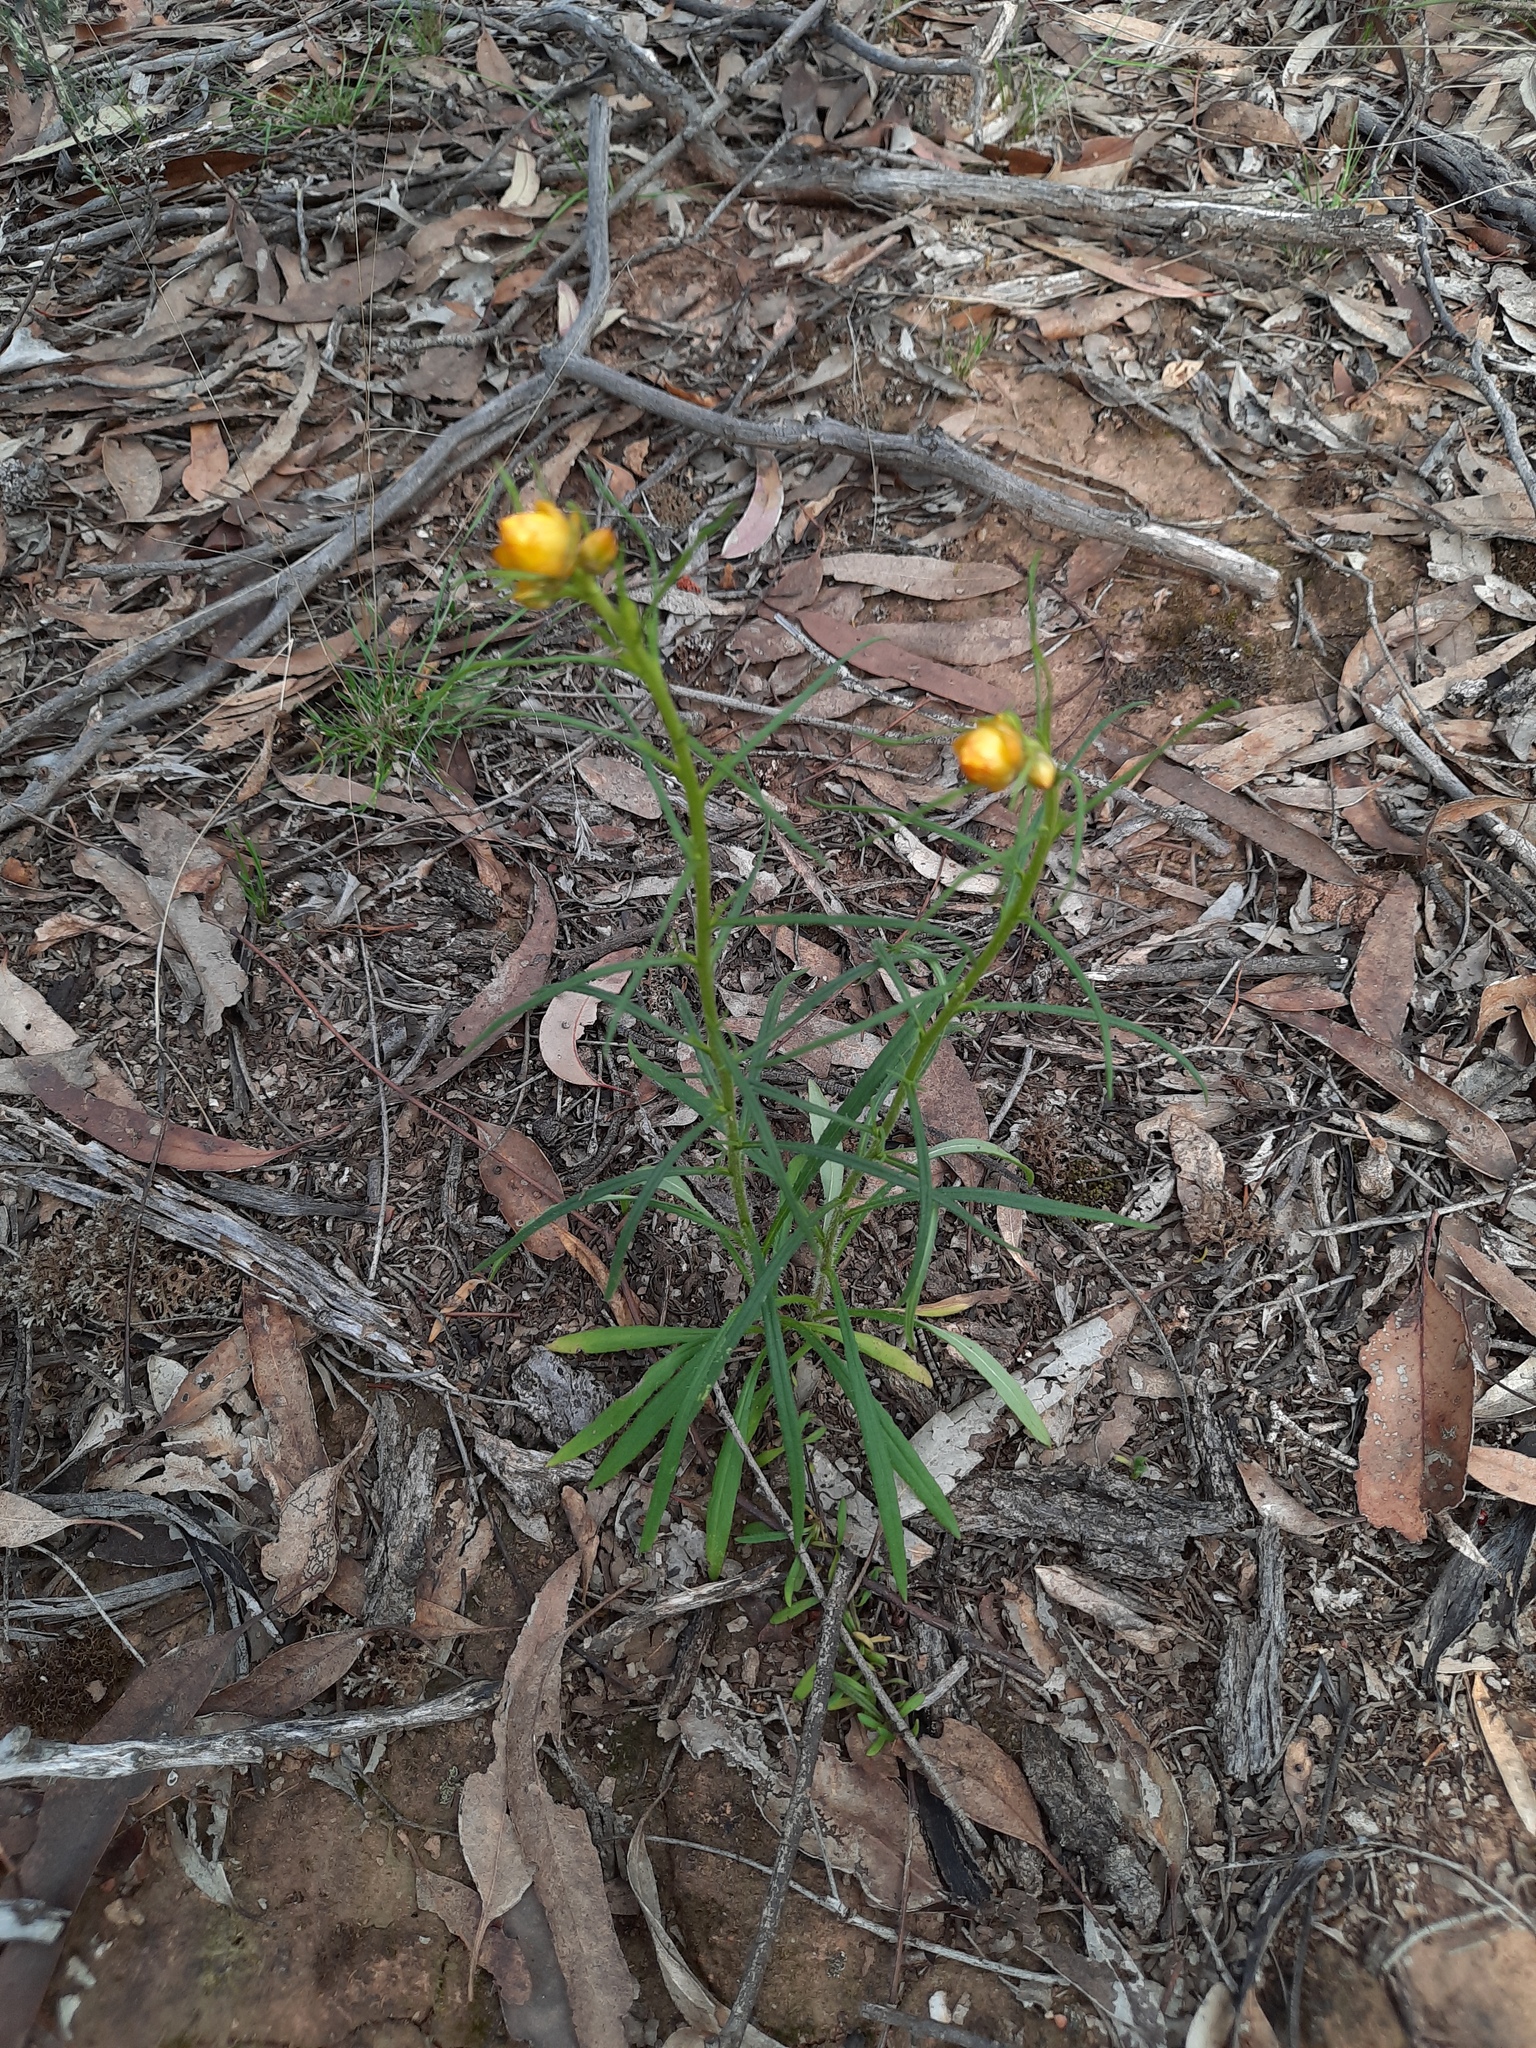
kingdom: Plantae
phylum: Tracheophyta
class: Magnoliopsida
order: Asterales
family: Asteraceae
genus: Xerochrysum
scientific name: Xerochrysum viscosum
